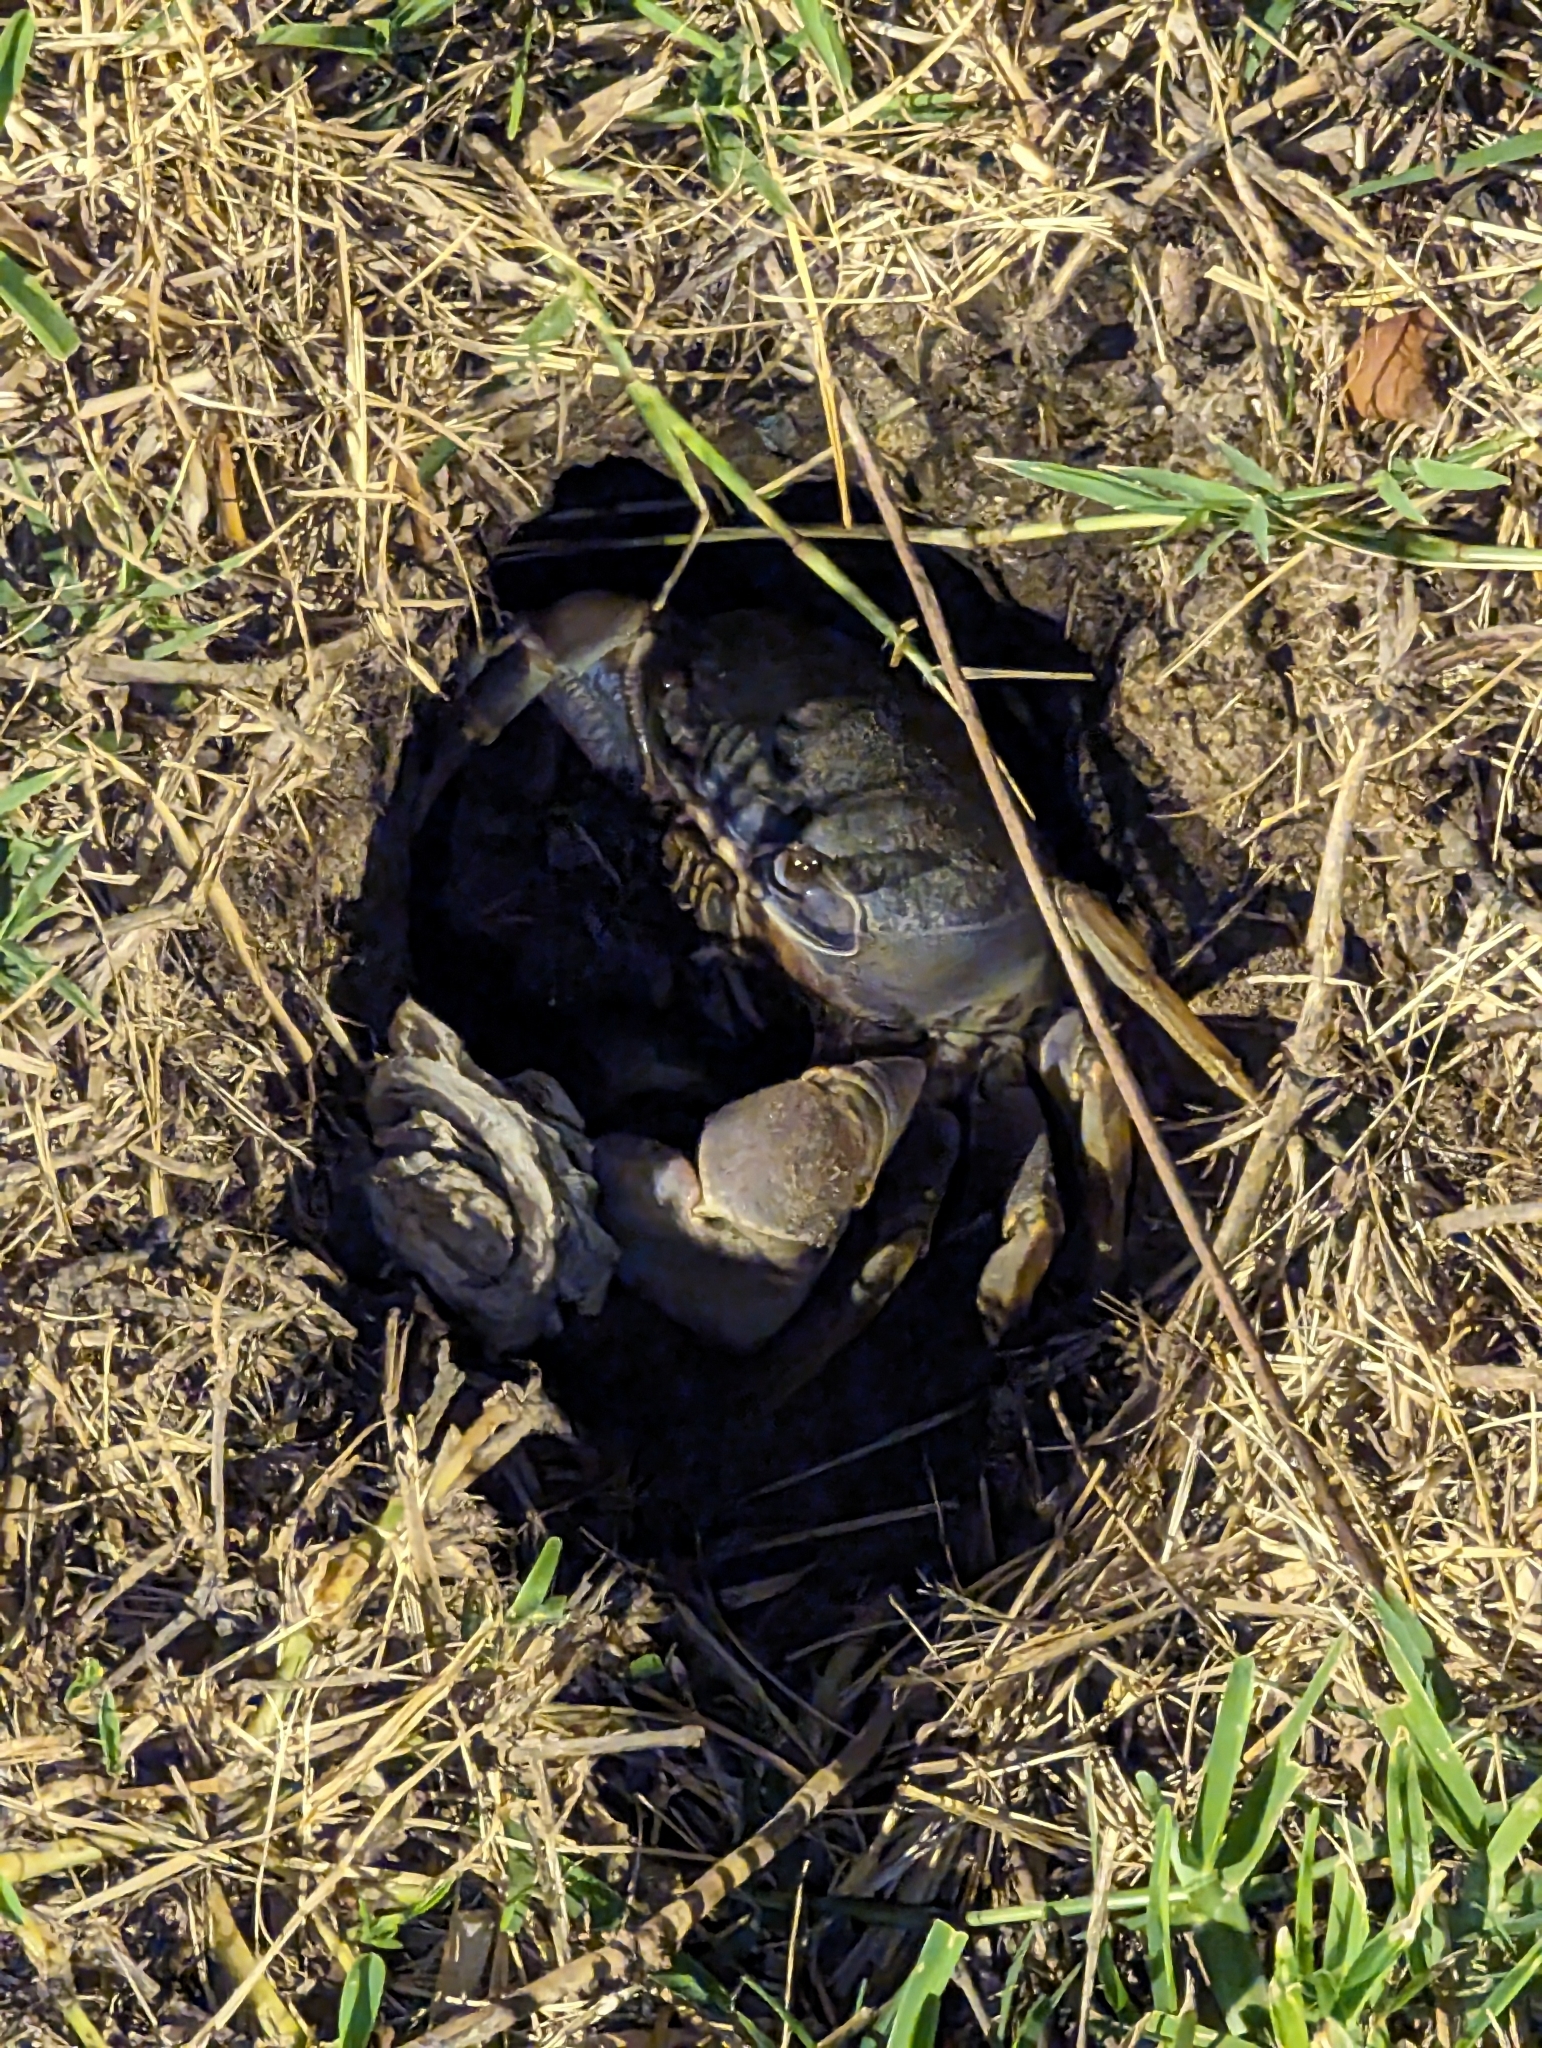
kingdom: Animalia
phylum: Arthropoda
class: Malacostraca
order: Decapoda
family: Gecarcinidae
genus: Cardisoma
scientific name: Cardisoma guanhumi
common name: Great land crab
